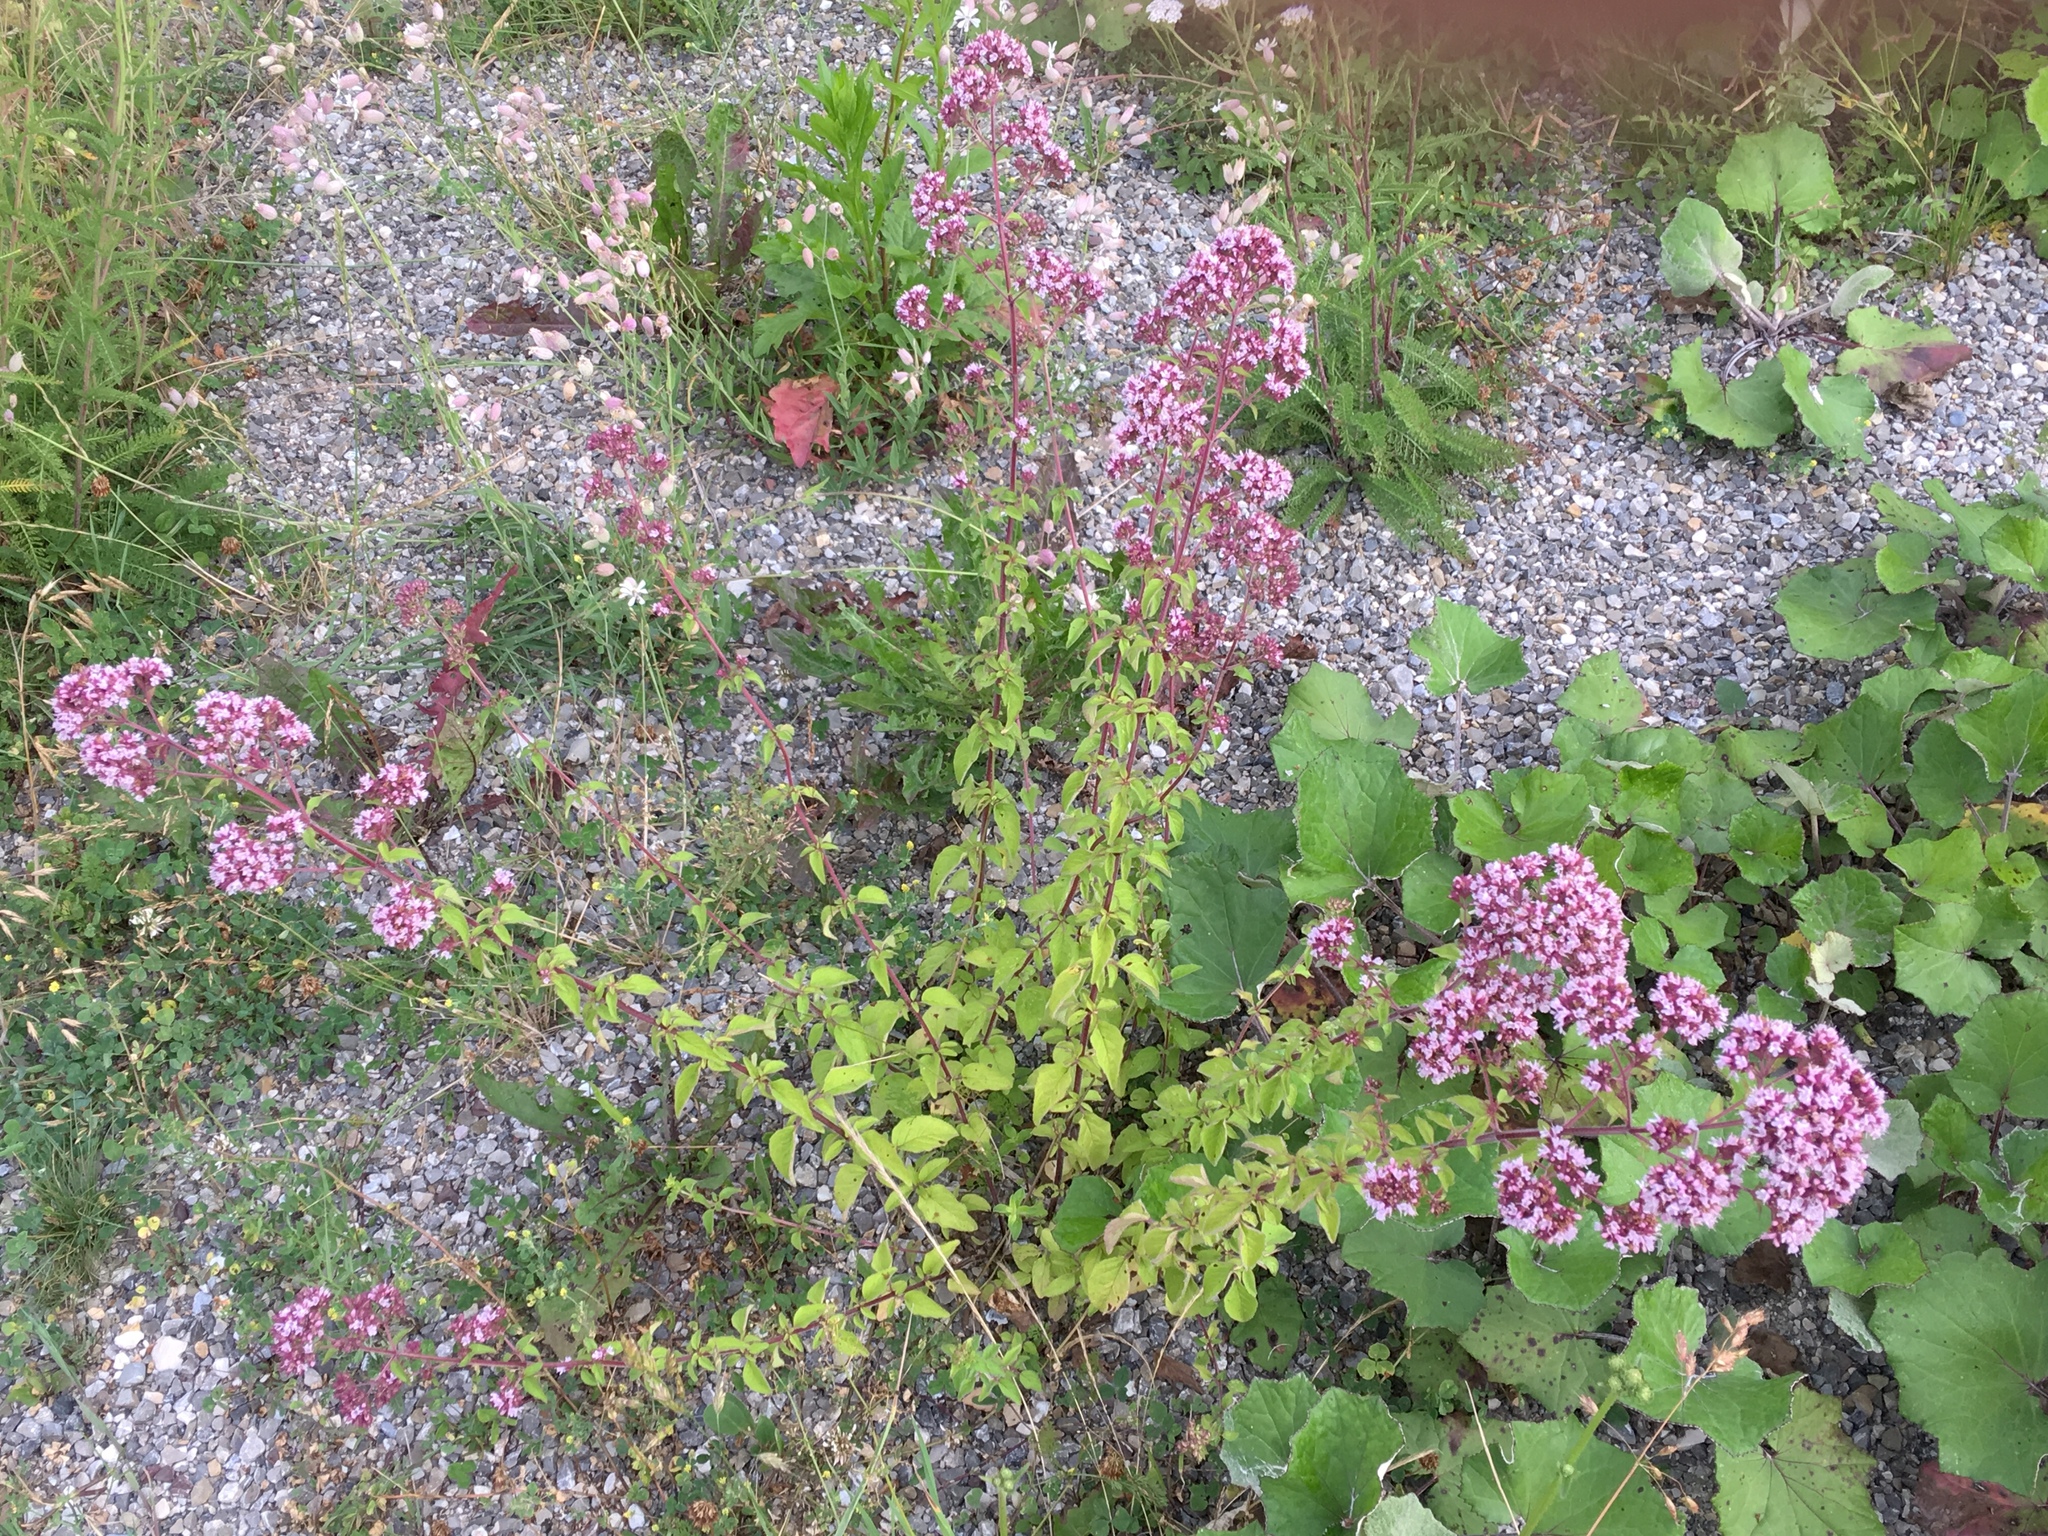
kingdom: Plantae
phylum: Tracheophyta
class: Magnoliopsida
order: Lamiales
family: Lamiaceae
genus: Origanum
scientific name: Origanum vulgare
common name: Wild marjoram
